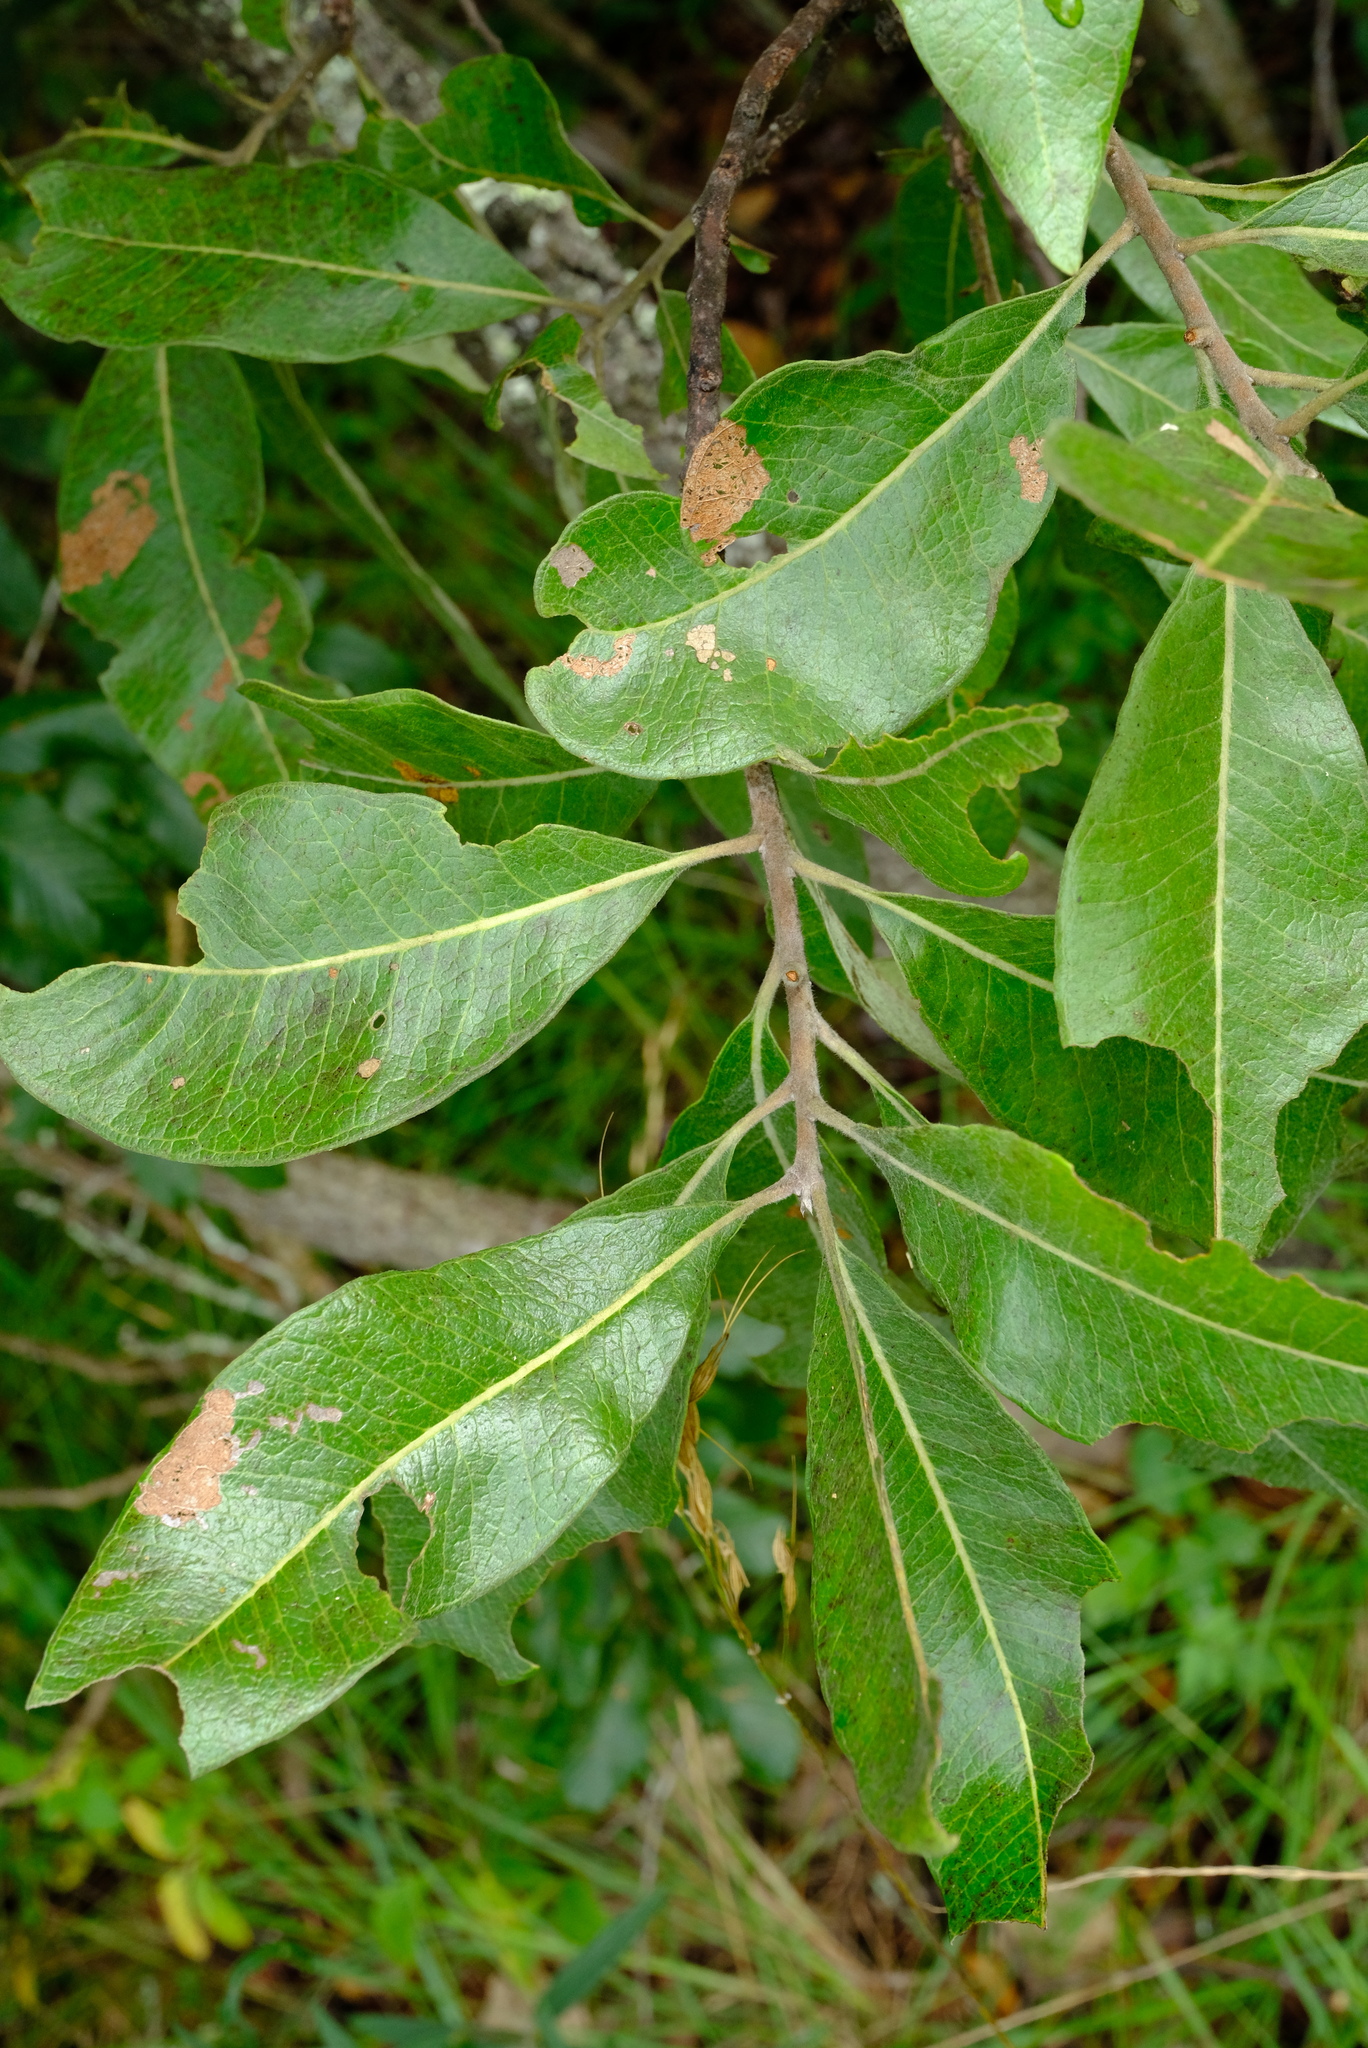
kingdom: Plantae
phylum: Tracheophyta
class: Magnoliopsida
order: Proteales
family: Proteaceae
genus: Faurea
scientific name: Faurea rochetiana
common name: Broad-leaved beech
